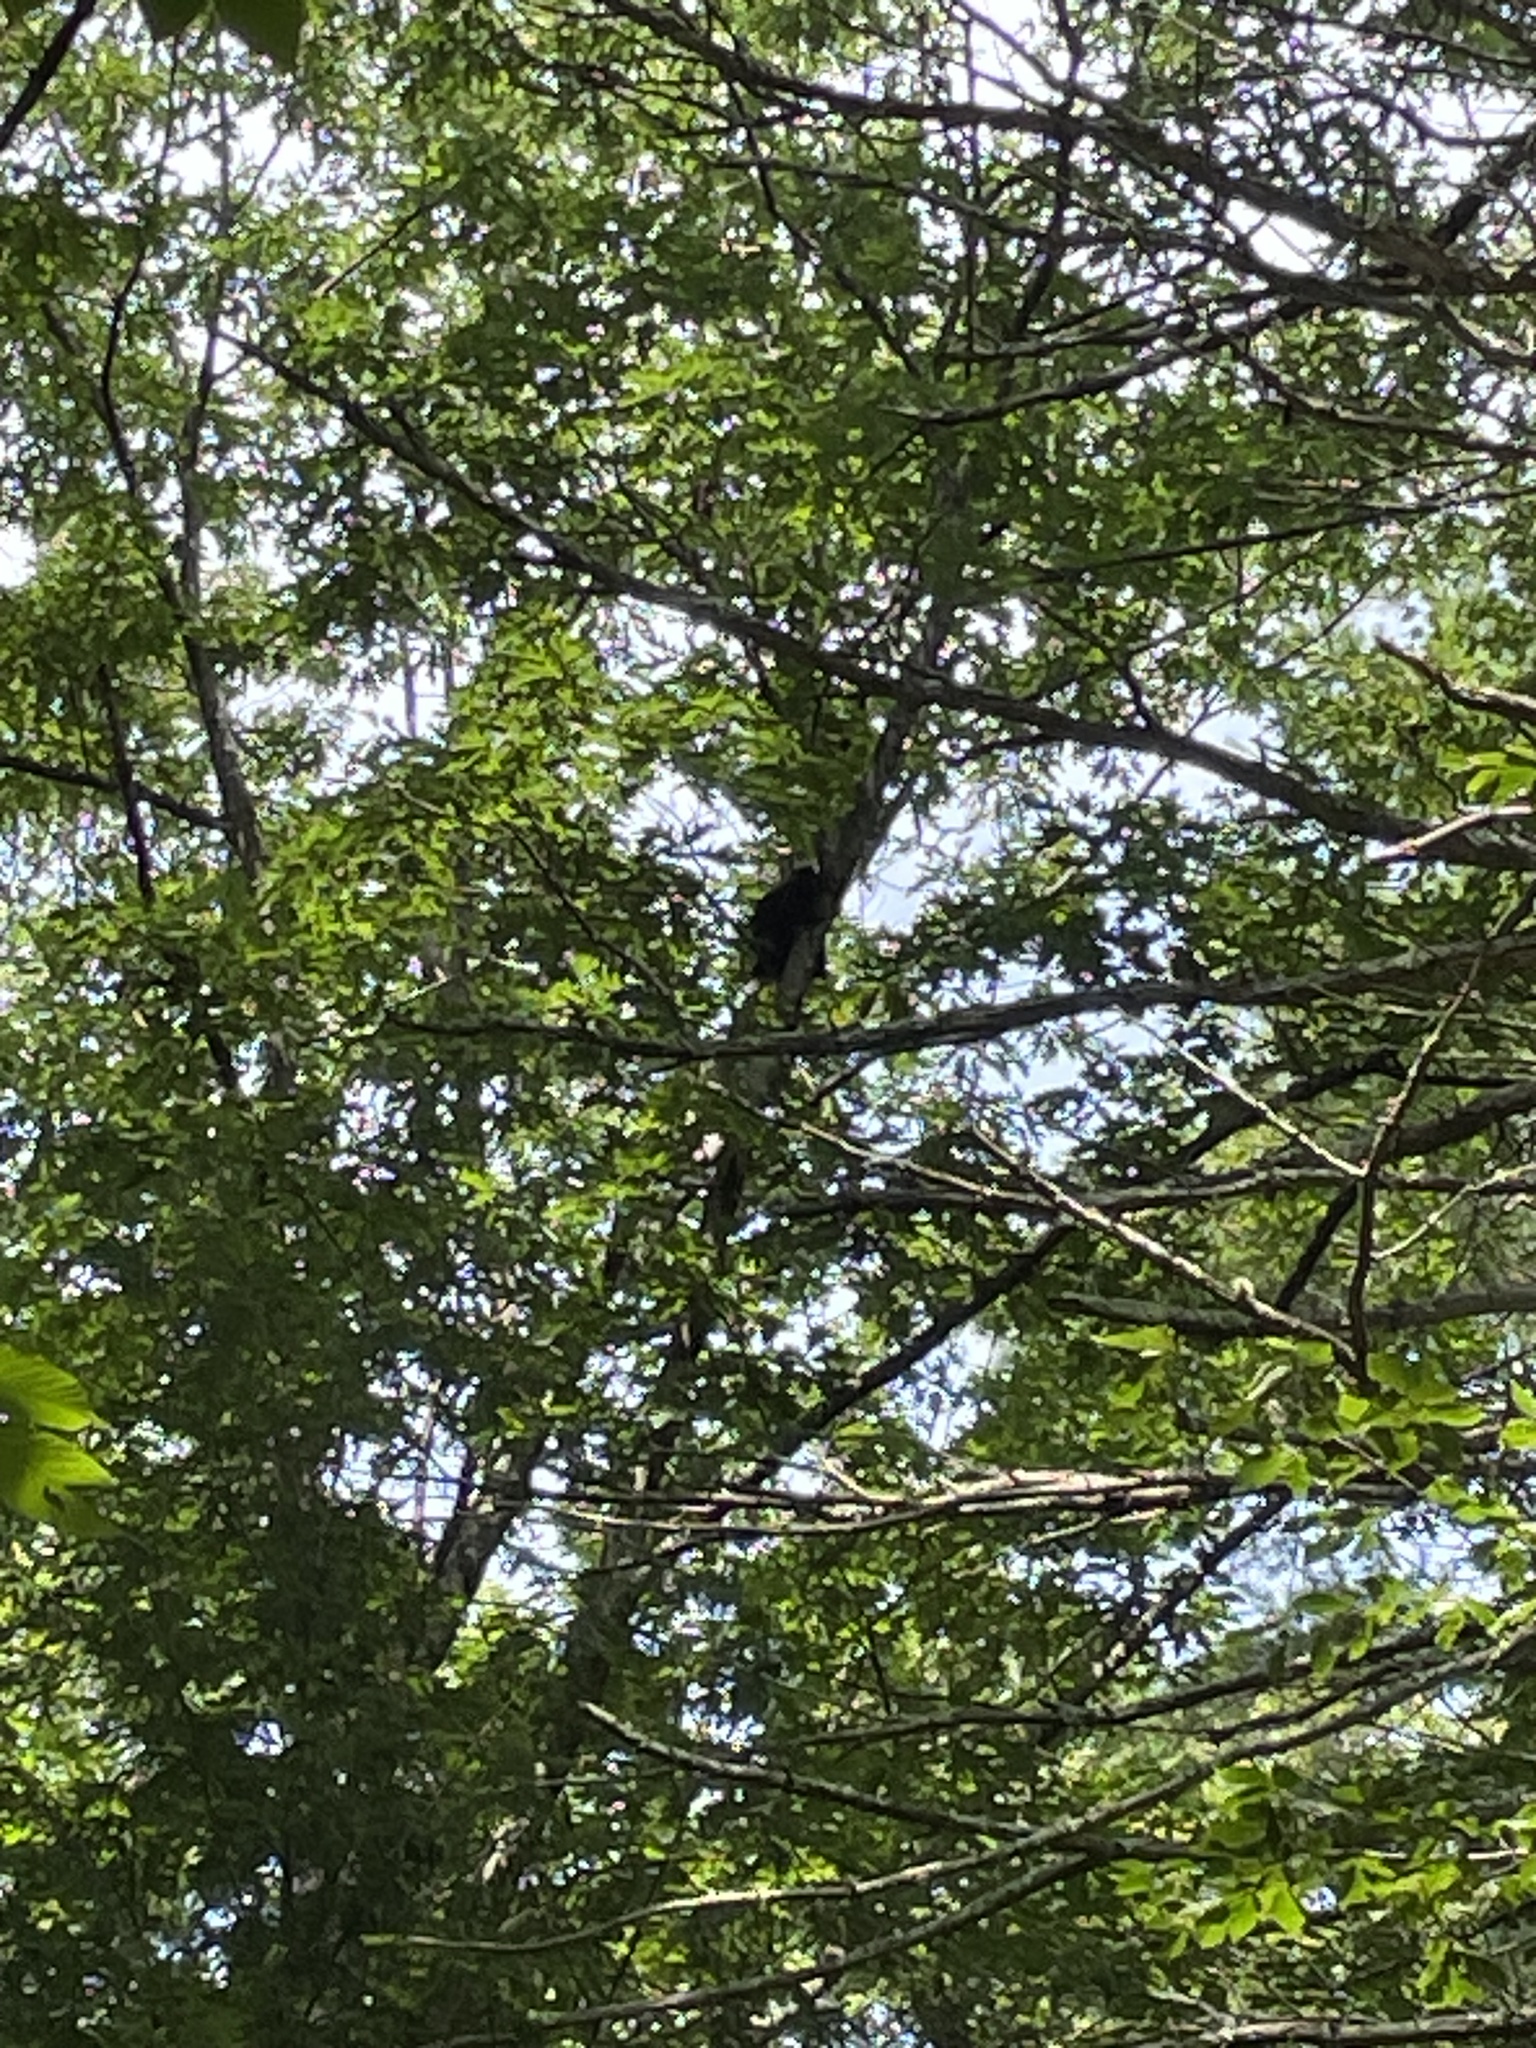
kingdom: Animalia
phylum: Chordata
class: Mammalia
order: Rodentia
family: Erethizontidae
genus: Erethizon
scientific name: Erethizon dorsatus
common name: North american porcupine
